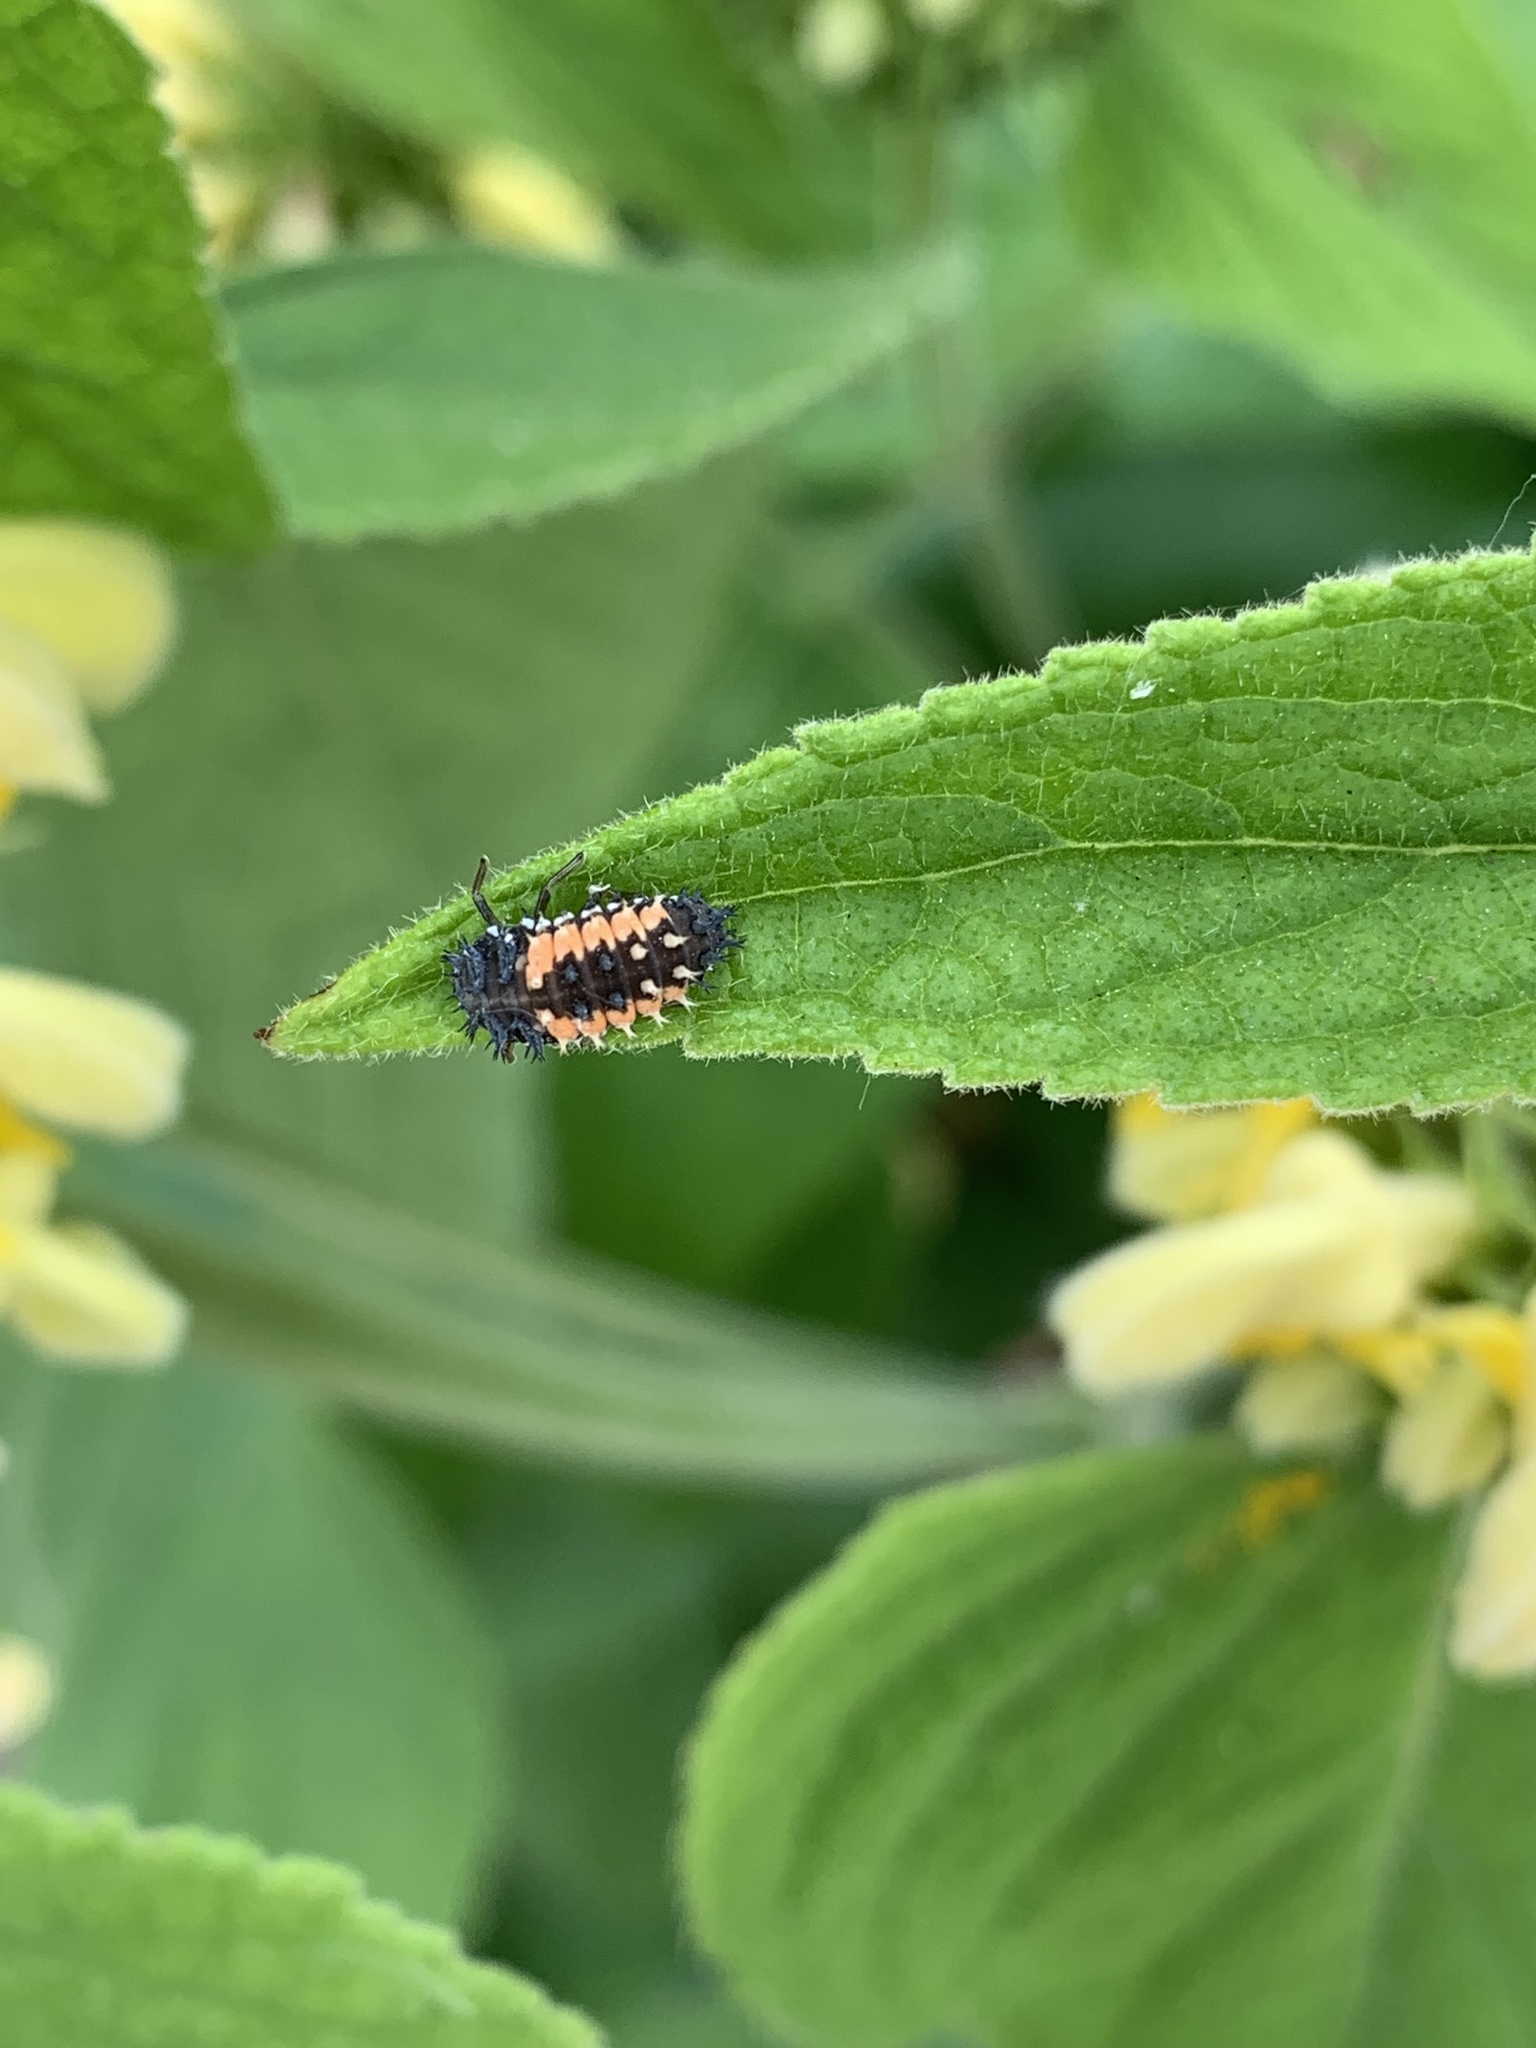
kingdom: Animalia
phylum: Arthropoda
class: Insecta
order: Coleoptera
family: Coccinellidae
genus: Harmonia
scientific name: Harmonia axyridis
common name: Harlequin ladybird
